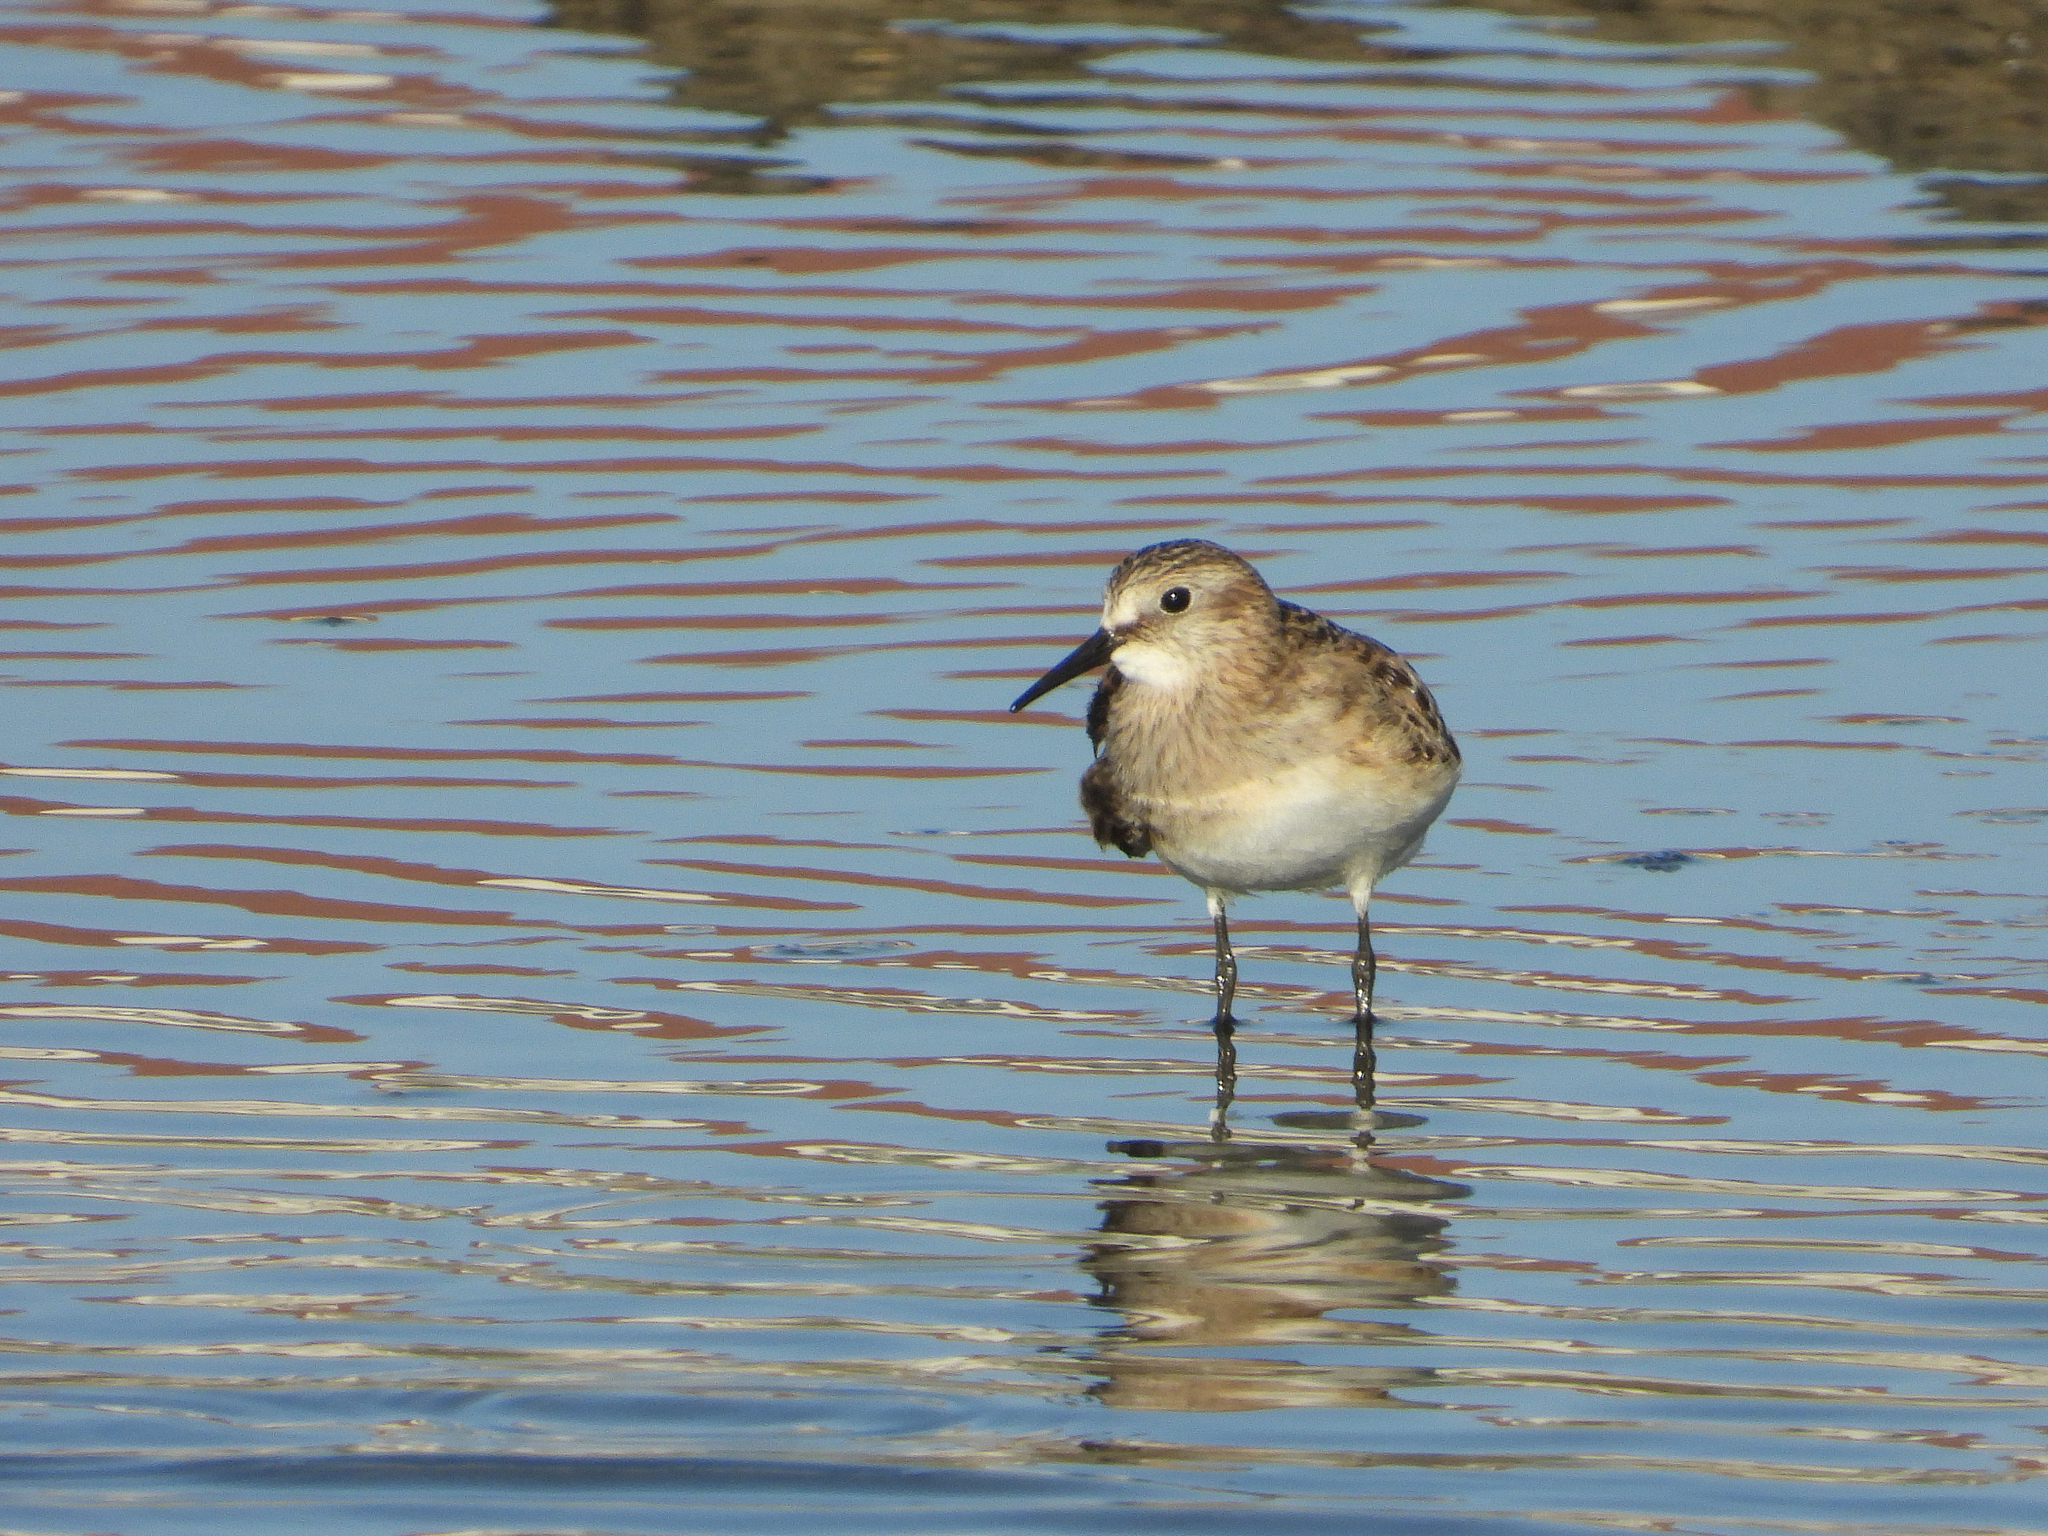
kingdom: Animalia
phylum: Chordata
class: Aves
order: Charadriiformes
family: Scolopacidae
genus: Calidris
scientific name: Calidris bairdii
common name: Baird's sandpiper
